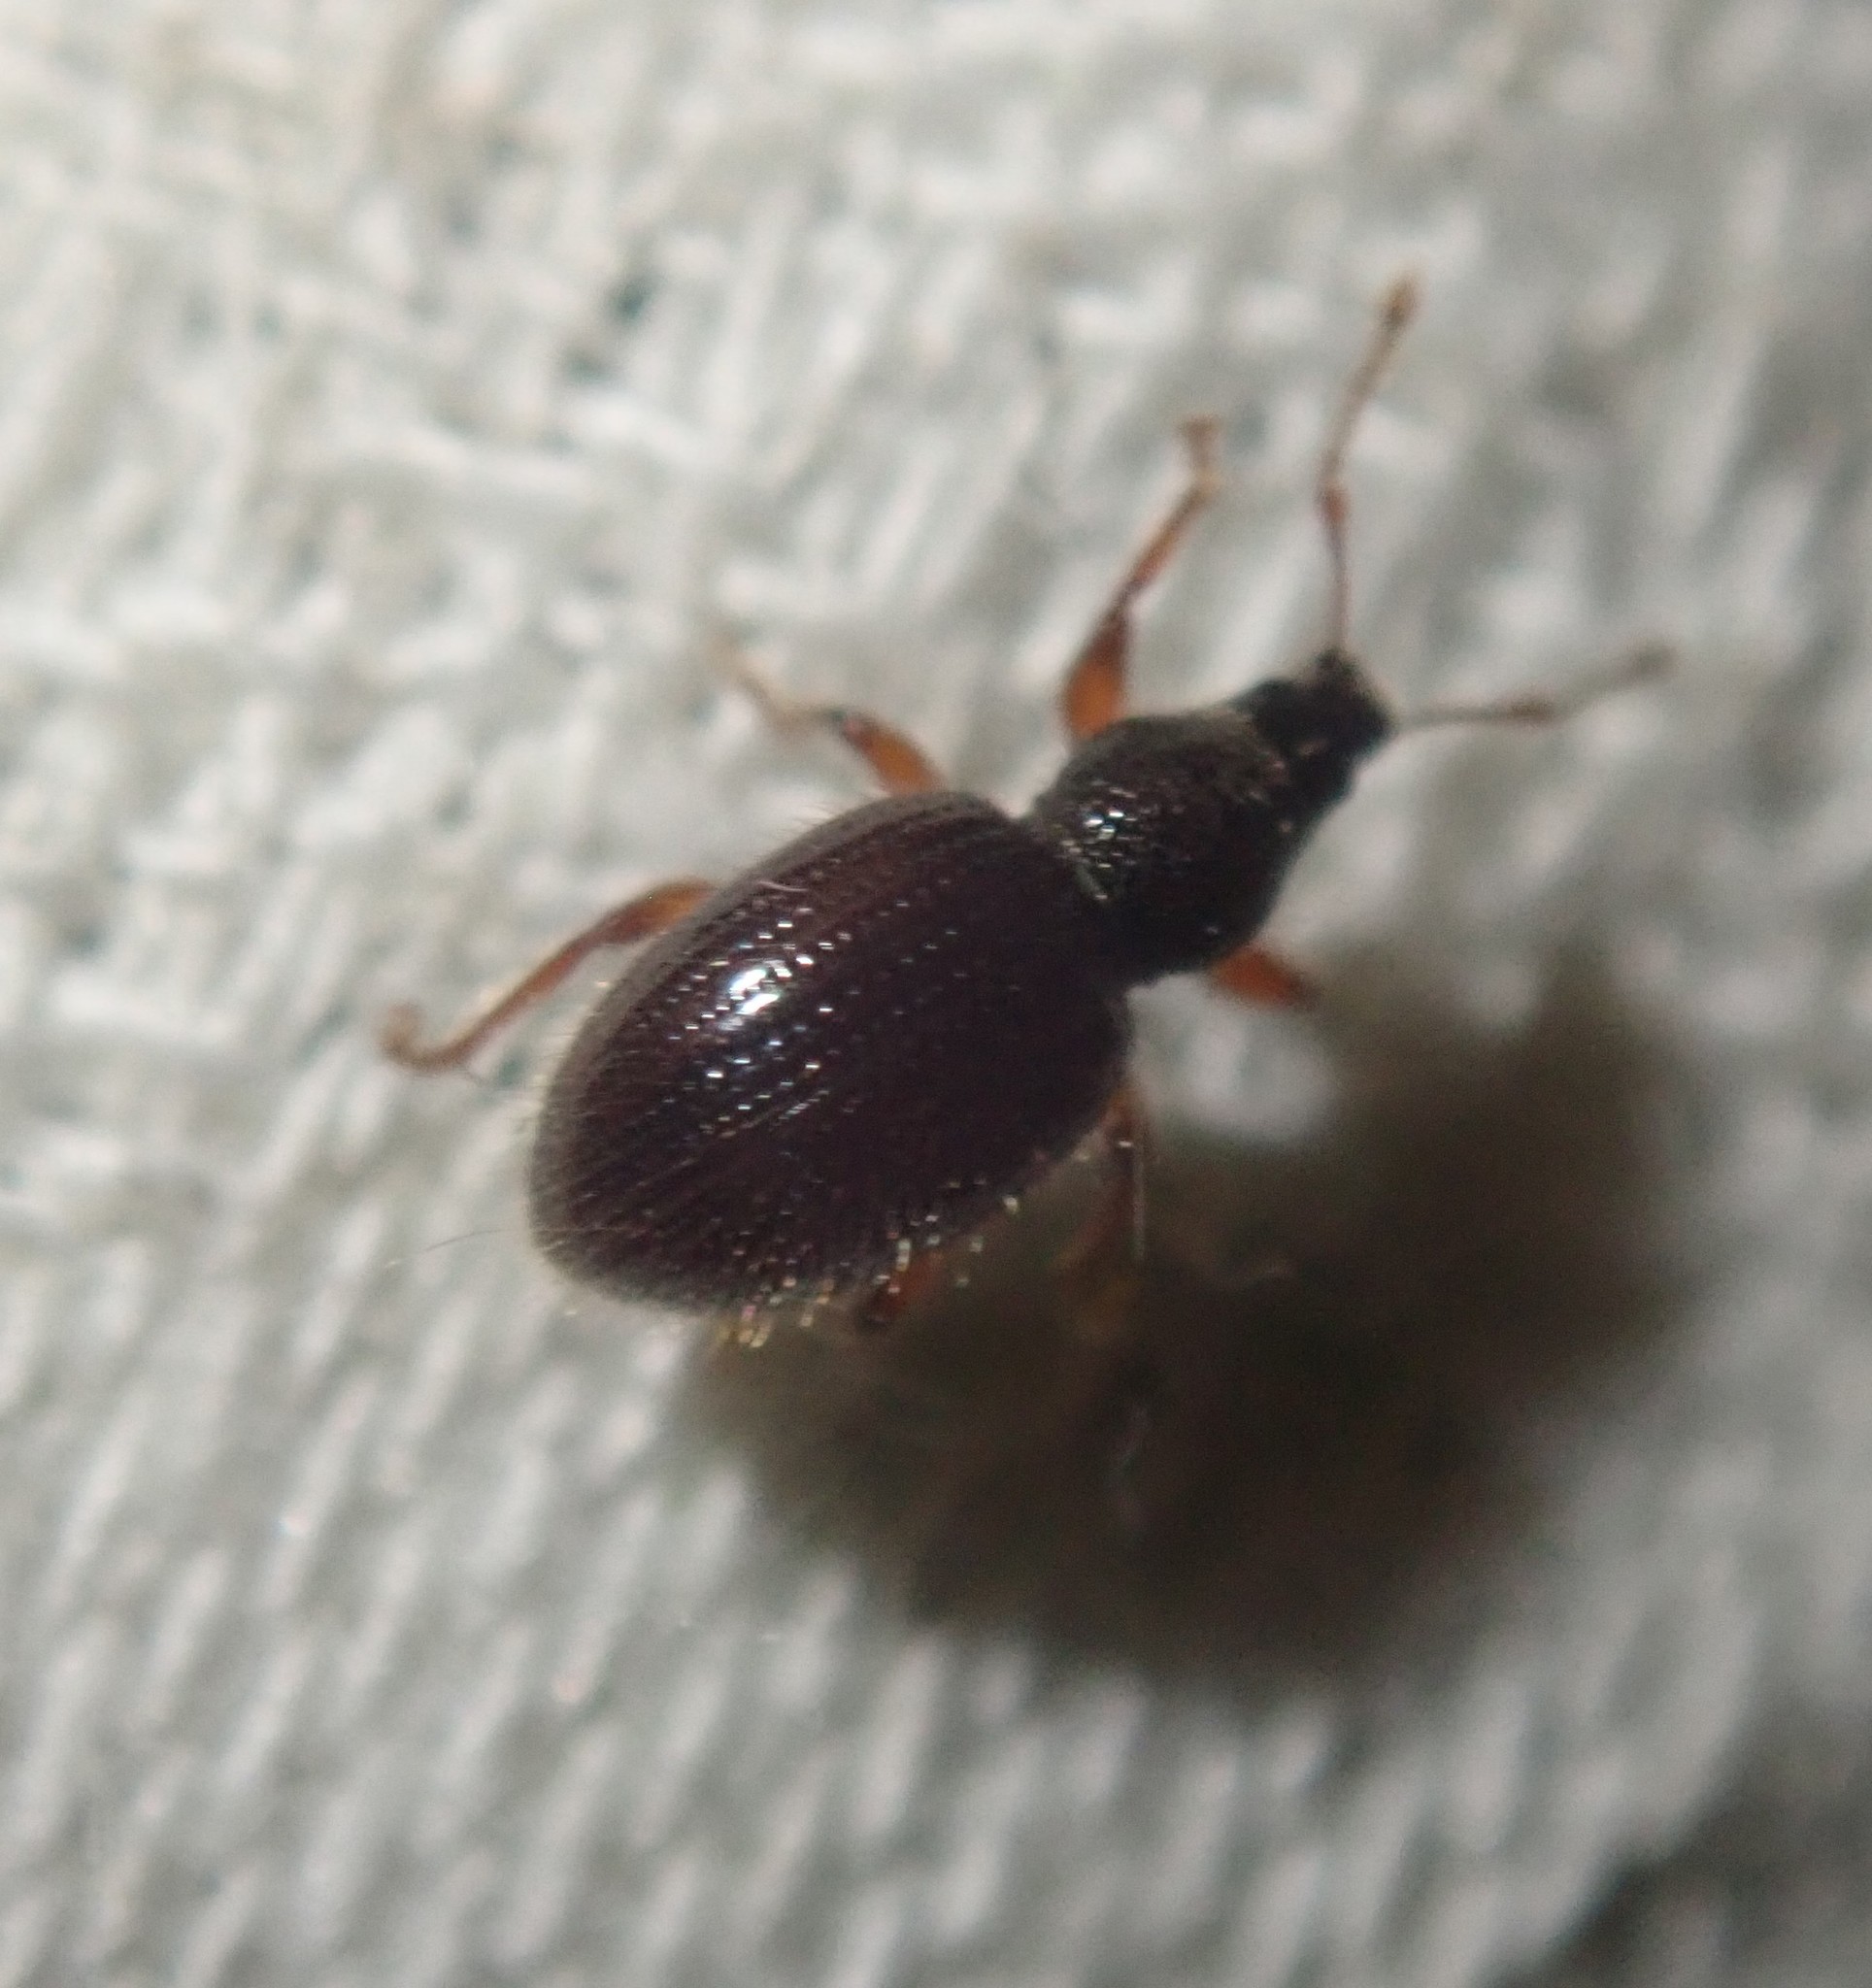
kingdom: Animalia
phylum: Arthropoda
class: Insecta
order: Coleoptera
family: Curculionidae
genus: Exomias
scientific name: Exomias pellucidus
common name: Hairy spider weevil
